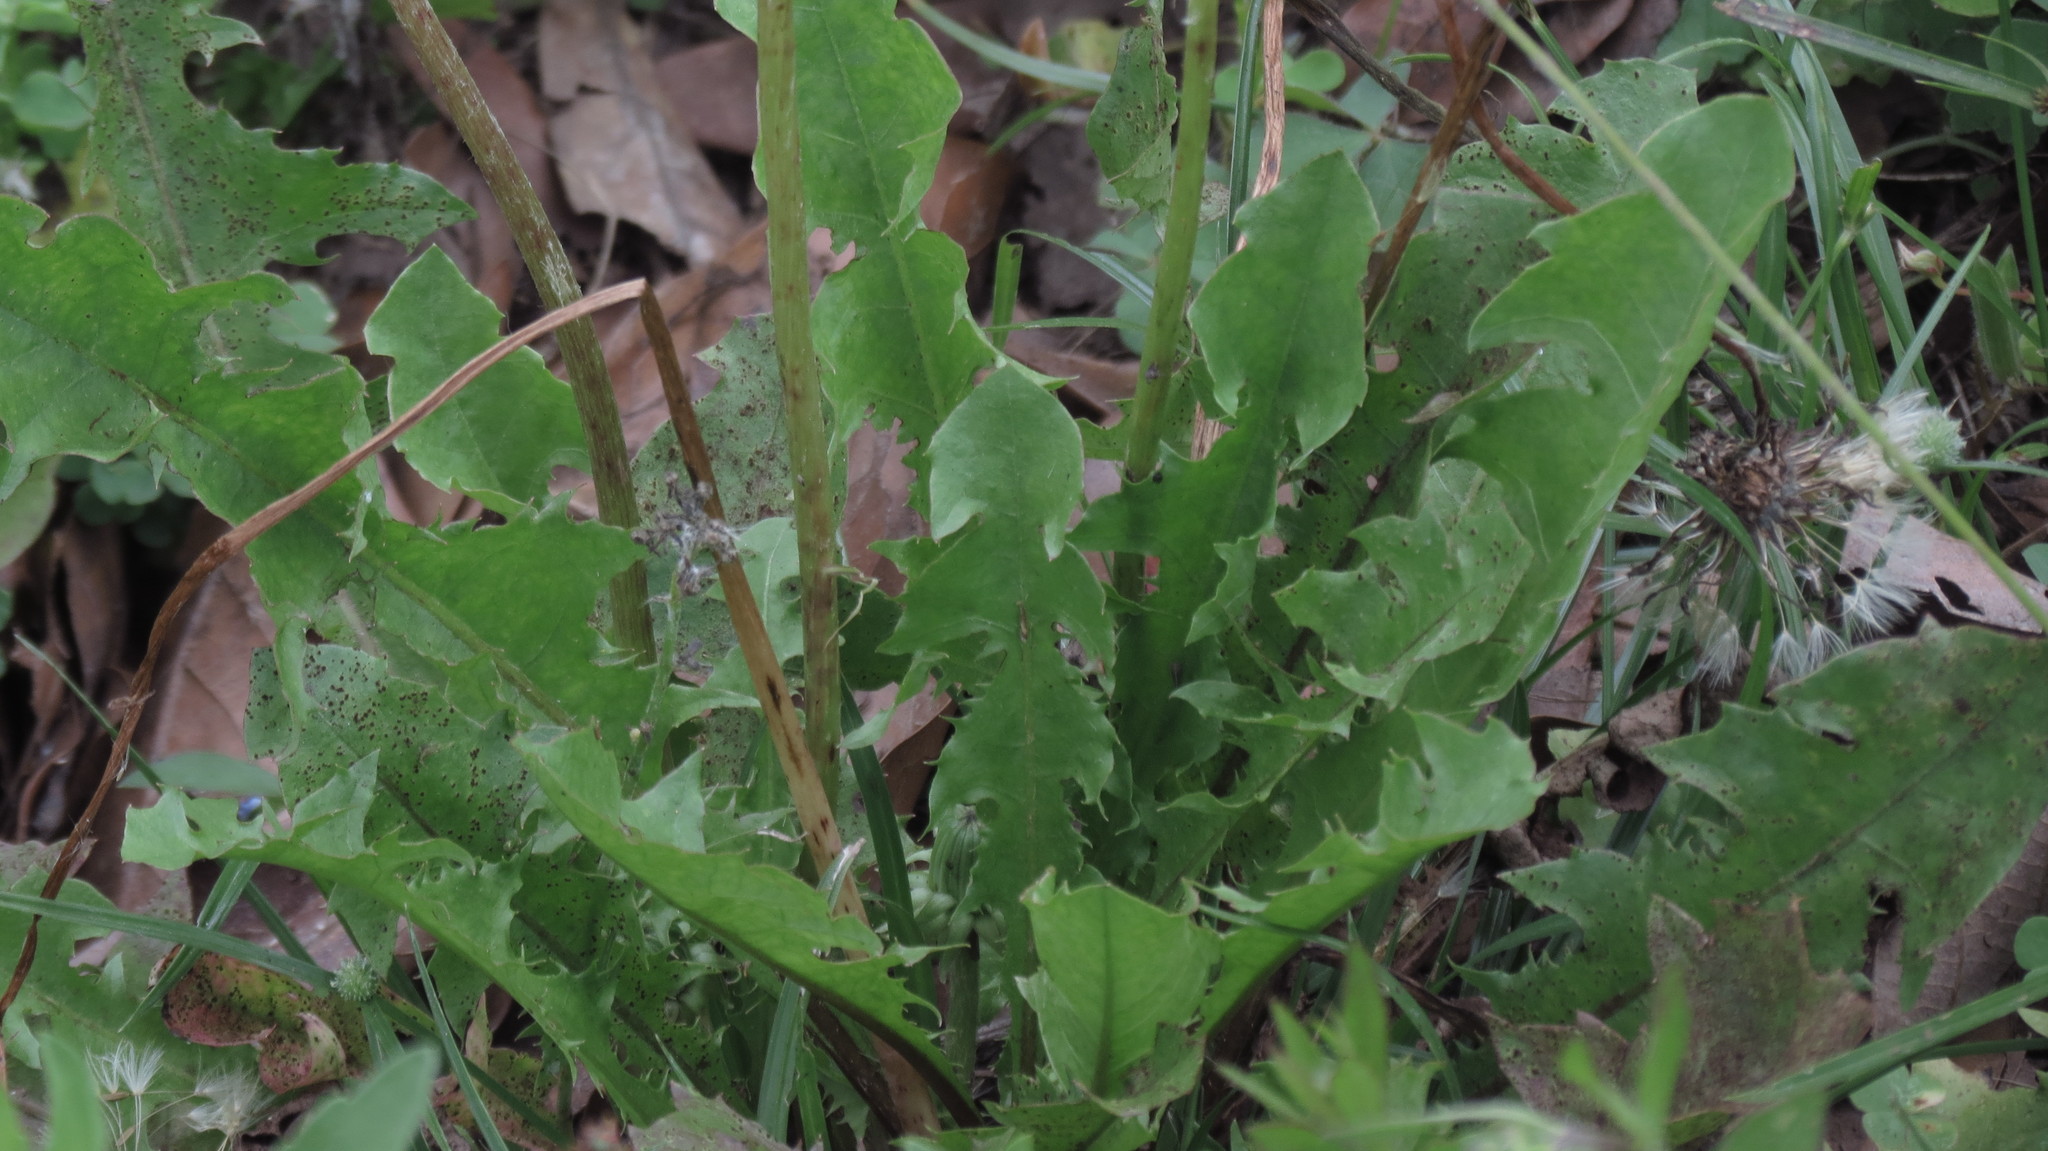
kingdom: Plantae
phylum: Tracheophyta
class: Magnoliopsida
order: Asterales
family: Asteraceae
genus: Taraxacum
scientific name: Taraxacum officinale
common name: Common dandelion
